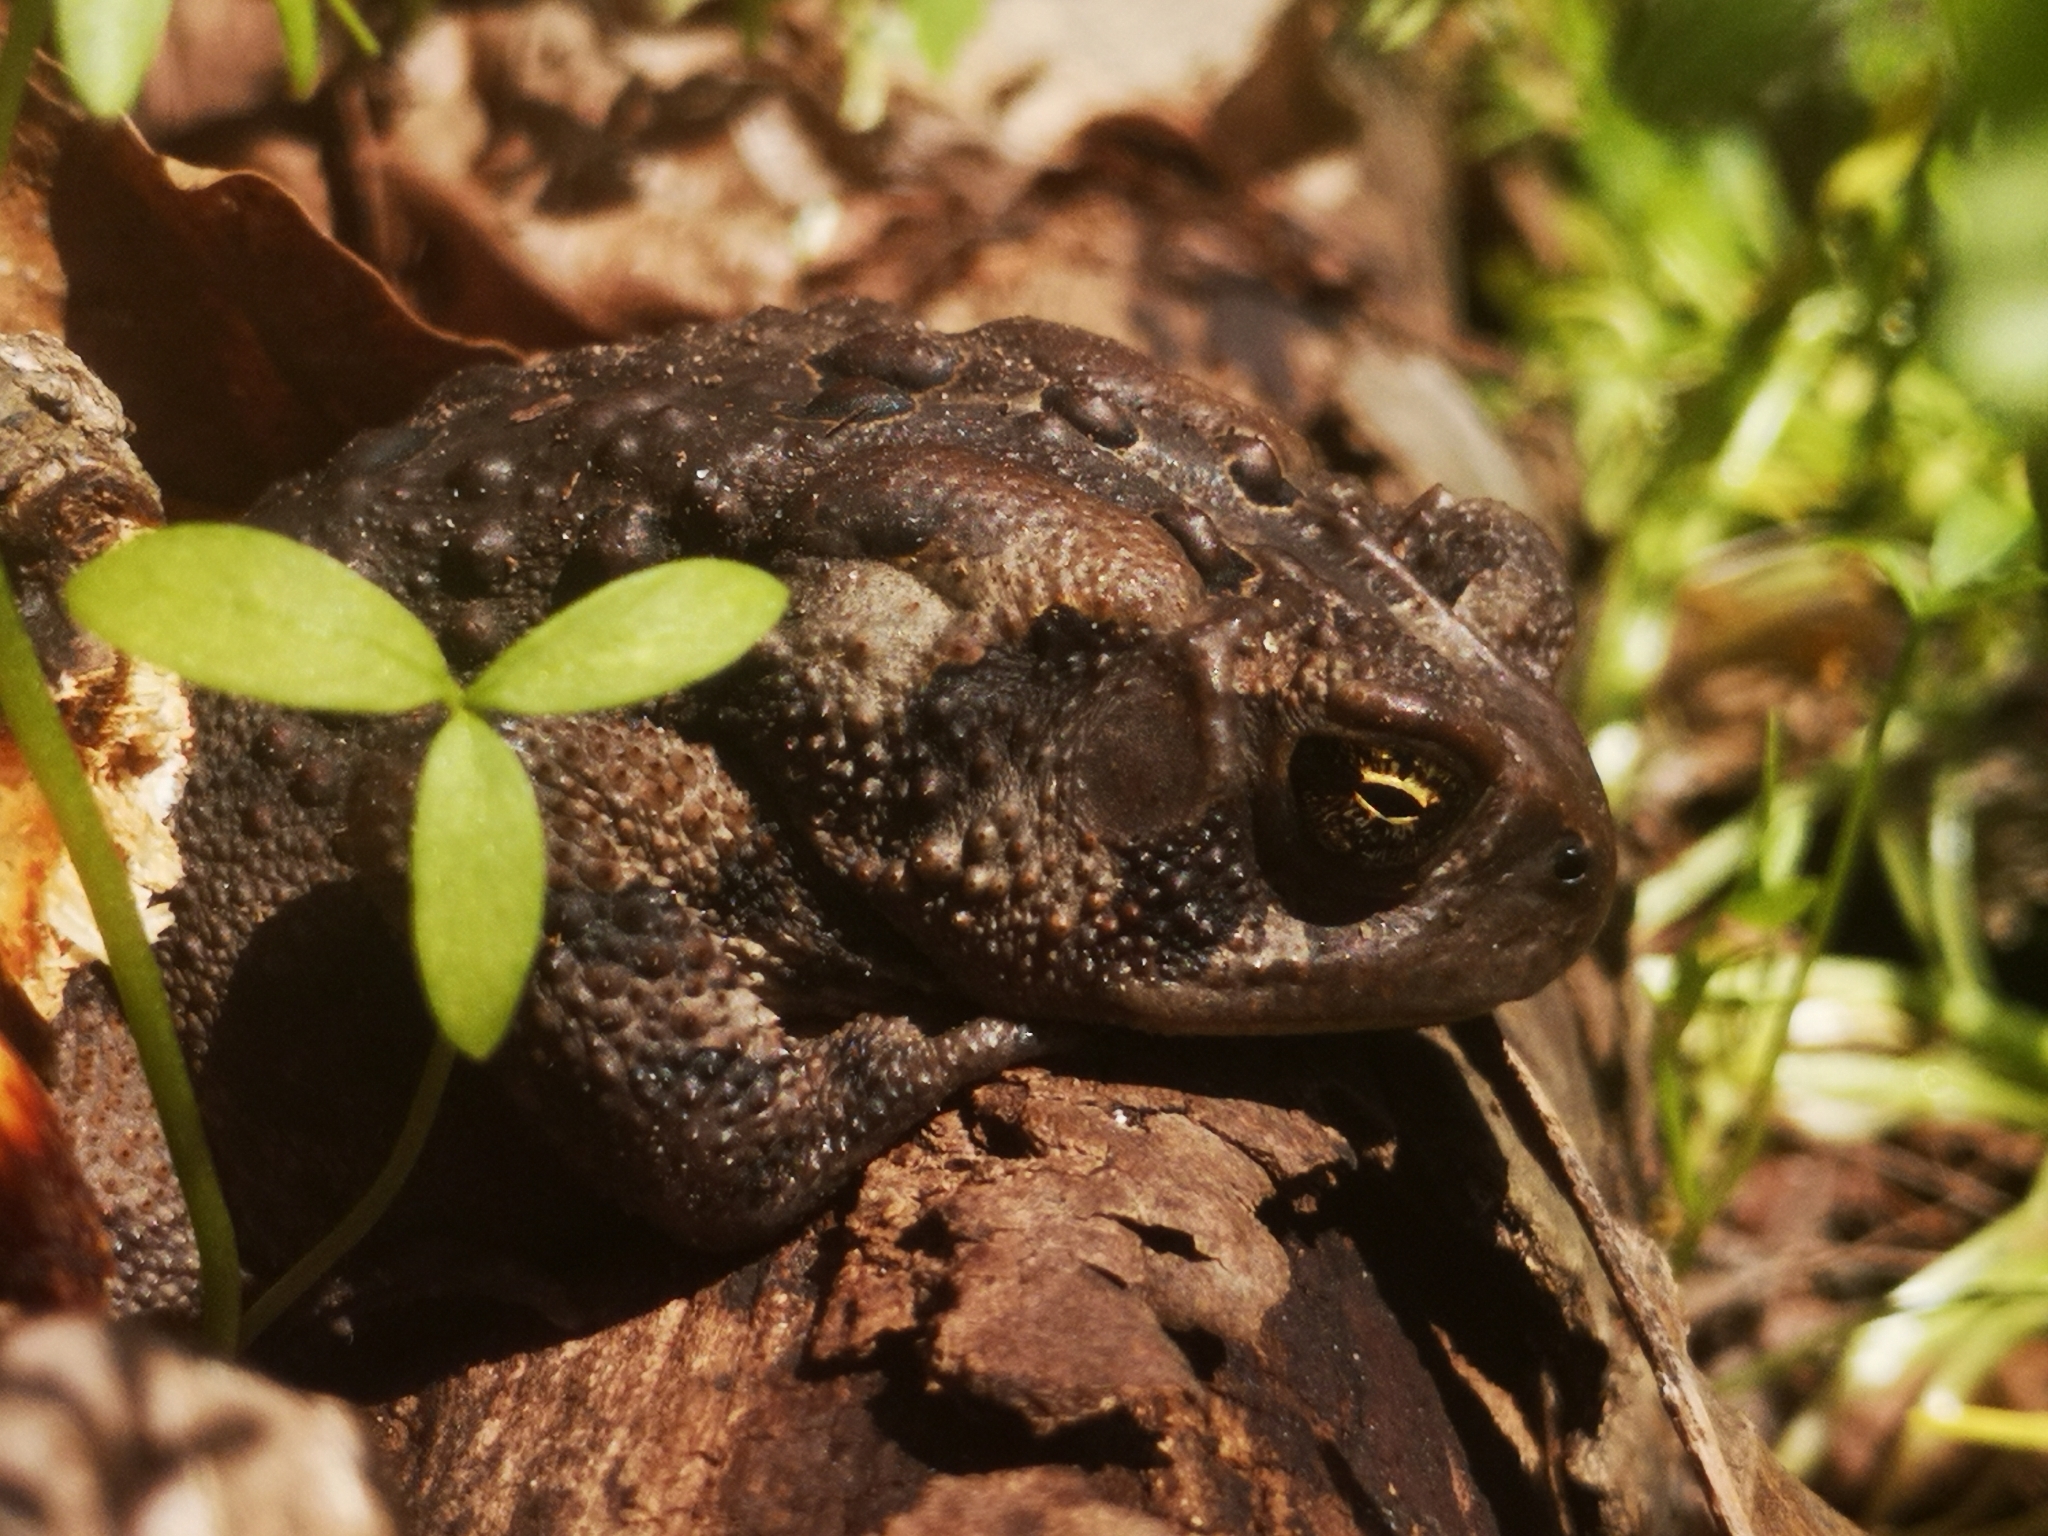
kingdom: Animalia
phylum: Chordata
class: Amphibia
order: Anura
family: Bufonidae
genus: Anaxyrus
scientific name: Anaxyrus americanus
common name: American toad
